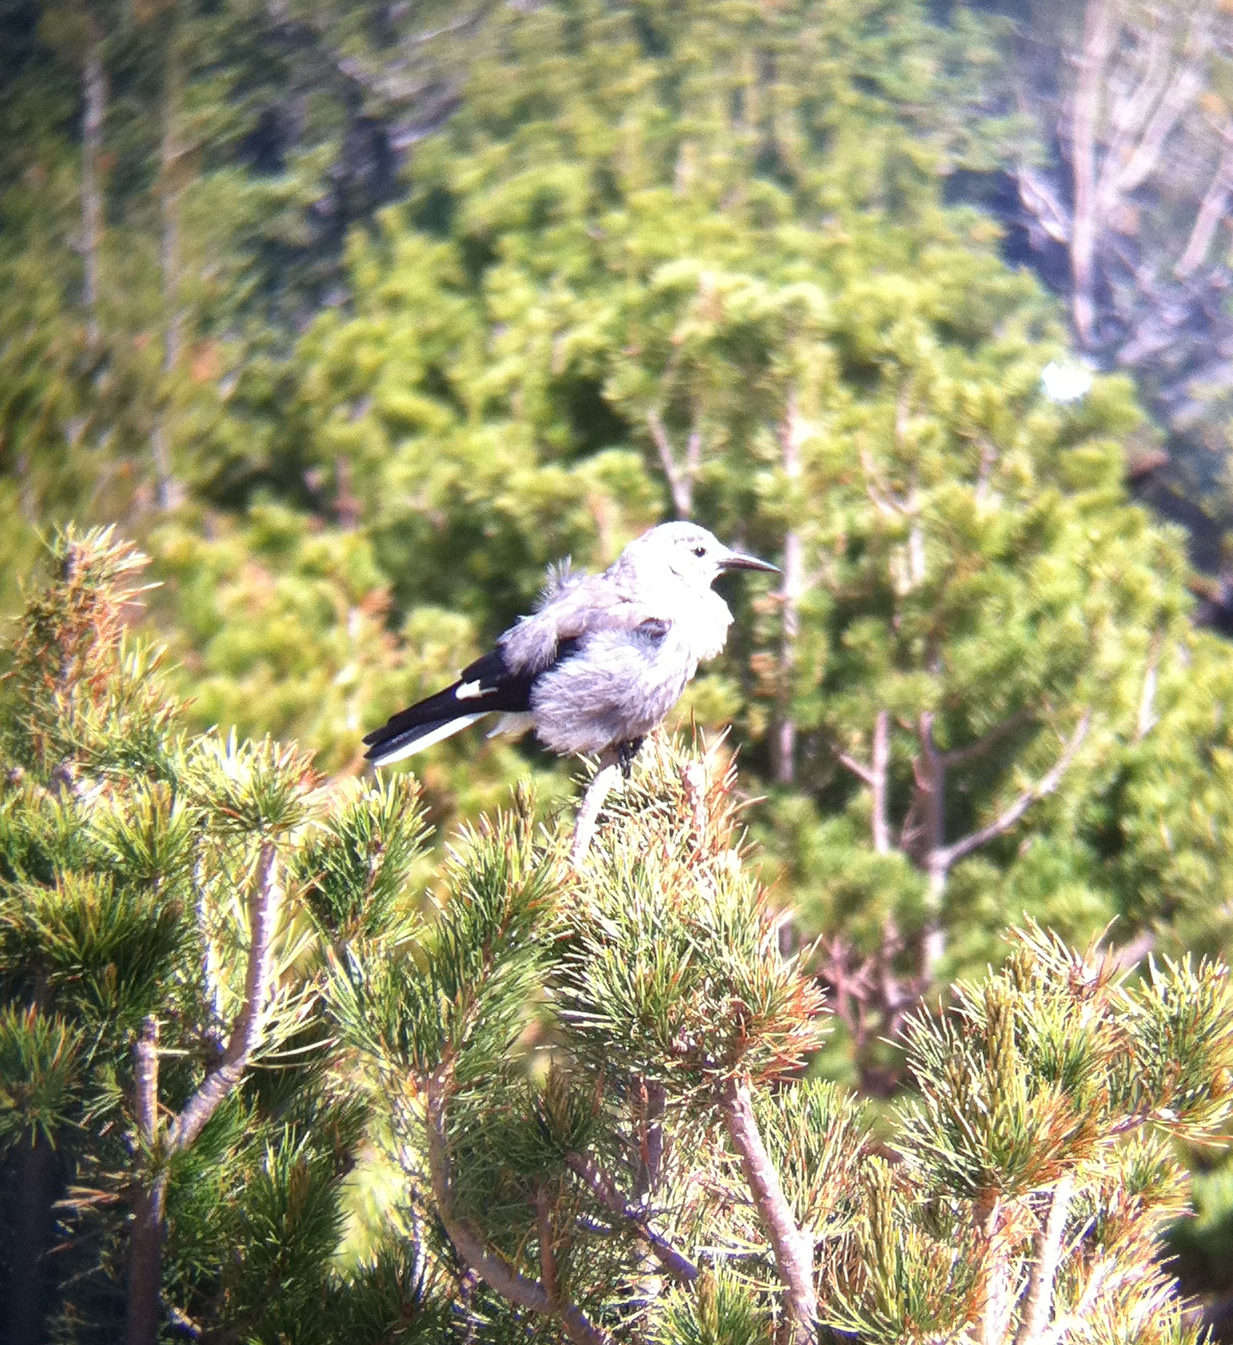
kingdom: Animalia
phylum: Chordata
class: Aves
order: Passeriformes
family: Corvidae
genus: Nucifraga
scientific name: Nucifraga columbiana
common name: Clark's nutcracker
